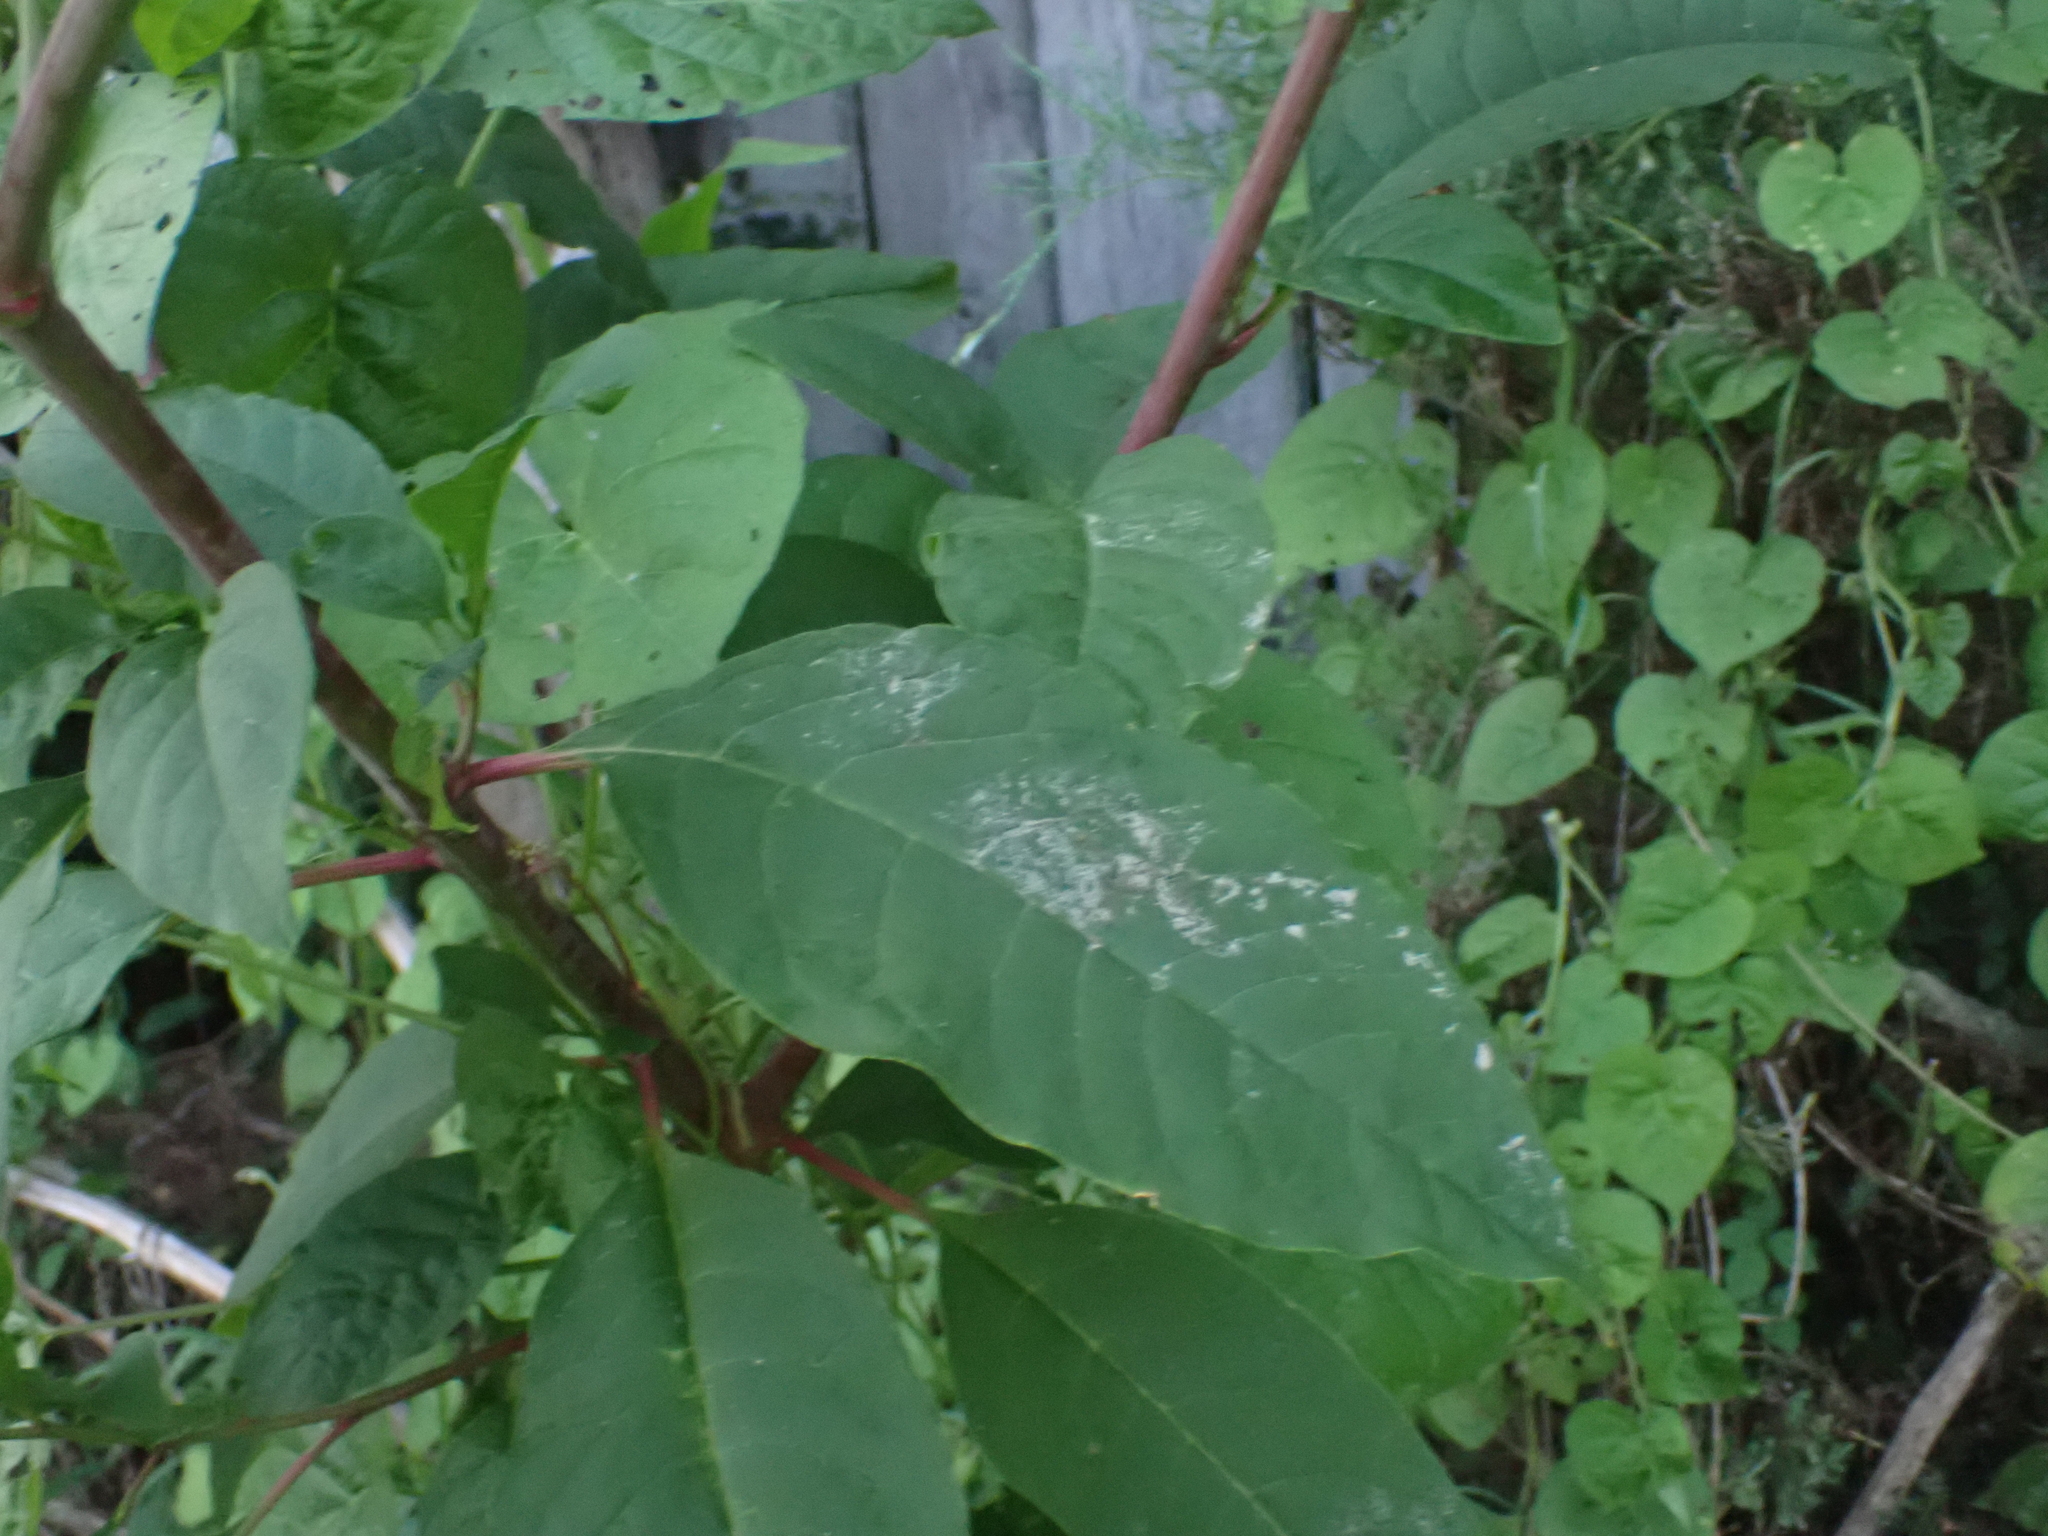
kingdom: Plantae
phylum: Tracheophyta
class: Magnoliopsida
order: Caryophyllales
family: Phytolaccaceae
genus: Phytolacca
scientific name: Phytolacca americana
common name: American pokeweed
